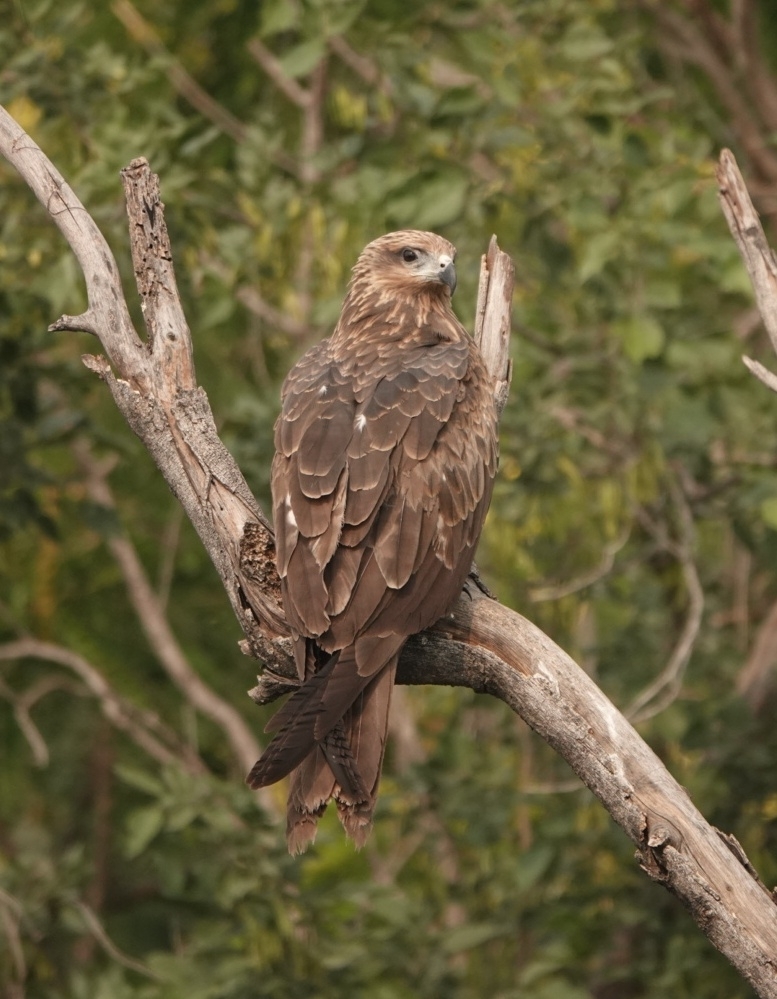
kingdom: Animalia
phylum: Chordata
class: Aves
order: Accipitriformes
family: Accipitridae
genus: Milvus
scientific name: Milvus migrans
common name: Black kite
